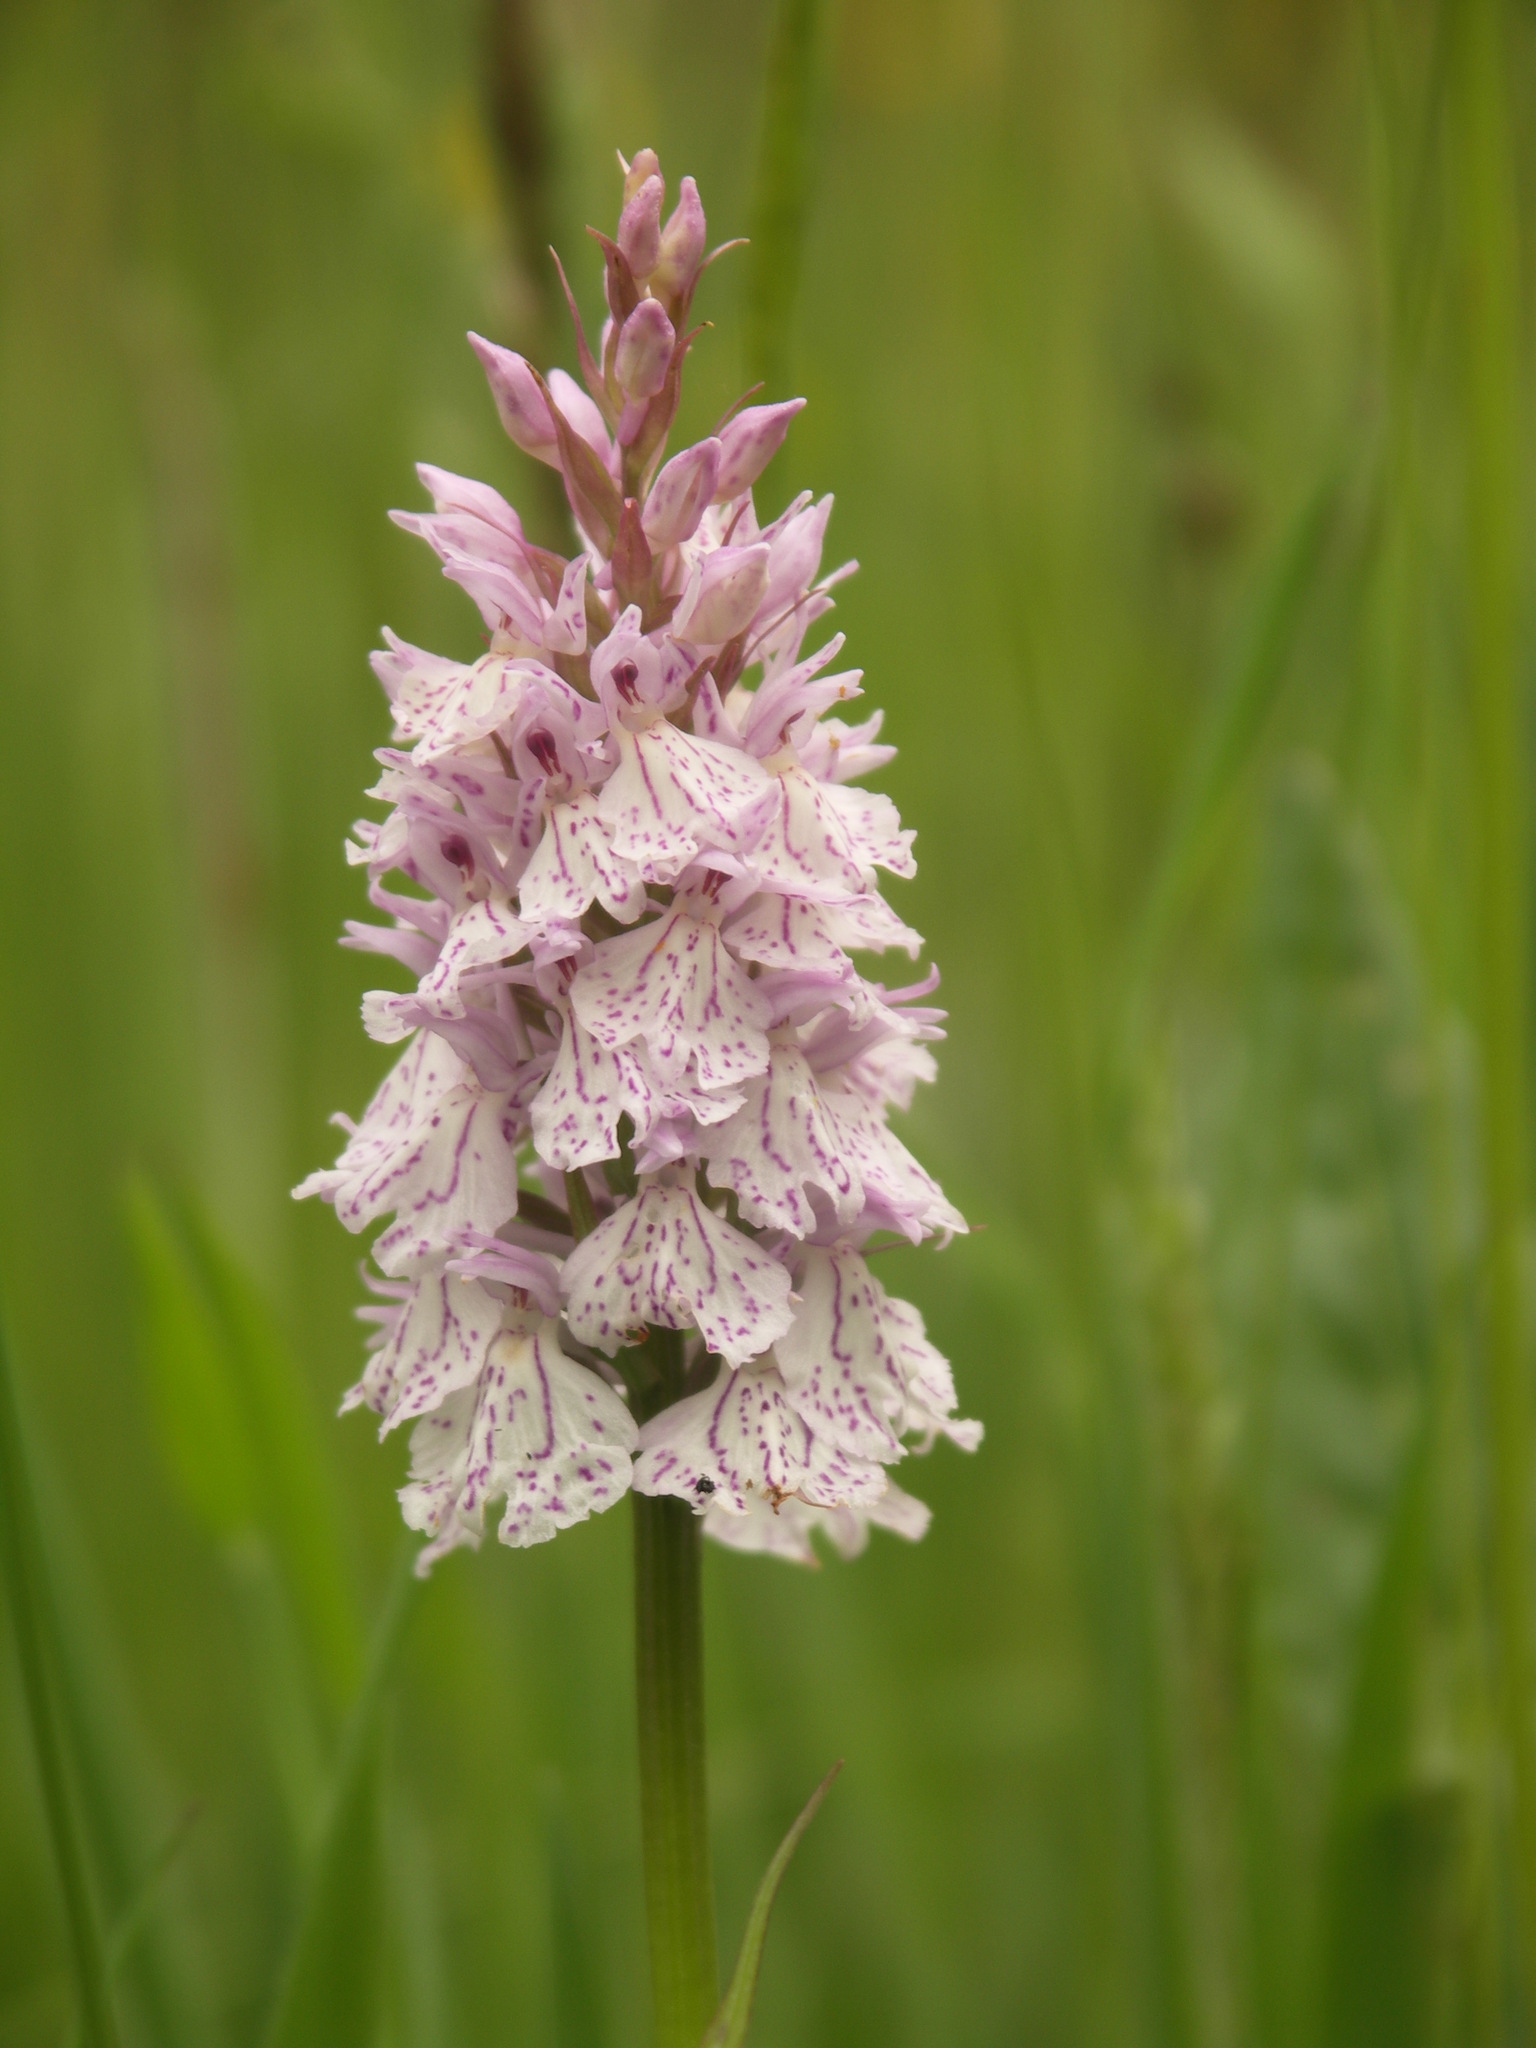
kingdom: Plantae
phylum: Tracheophyta
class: Liliopsida
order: Asparagales
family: Orchidaceae
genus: Dactylorhiza
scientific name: Dactylorhiza maculata
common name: Heath spotted-orchid
